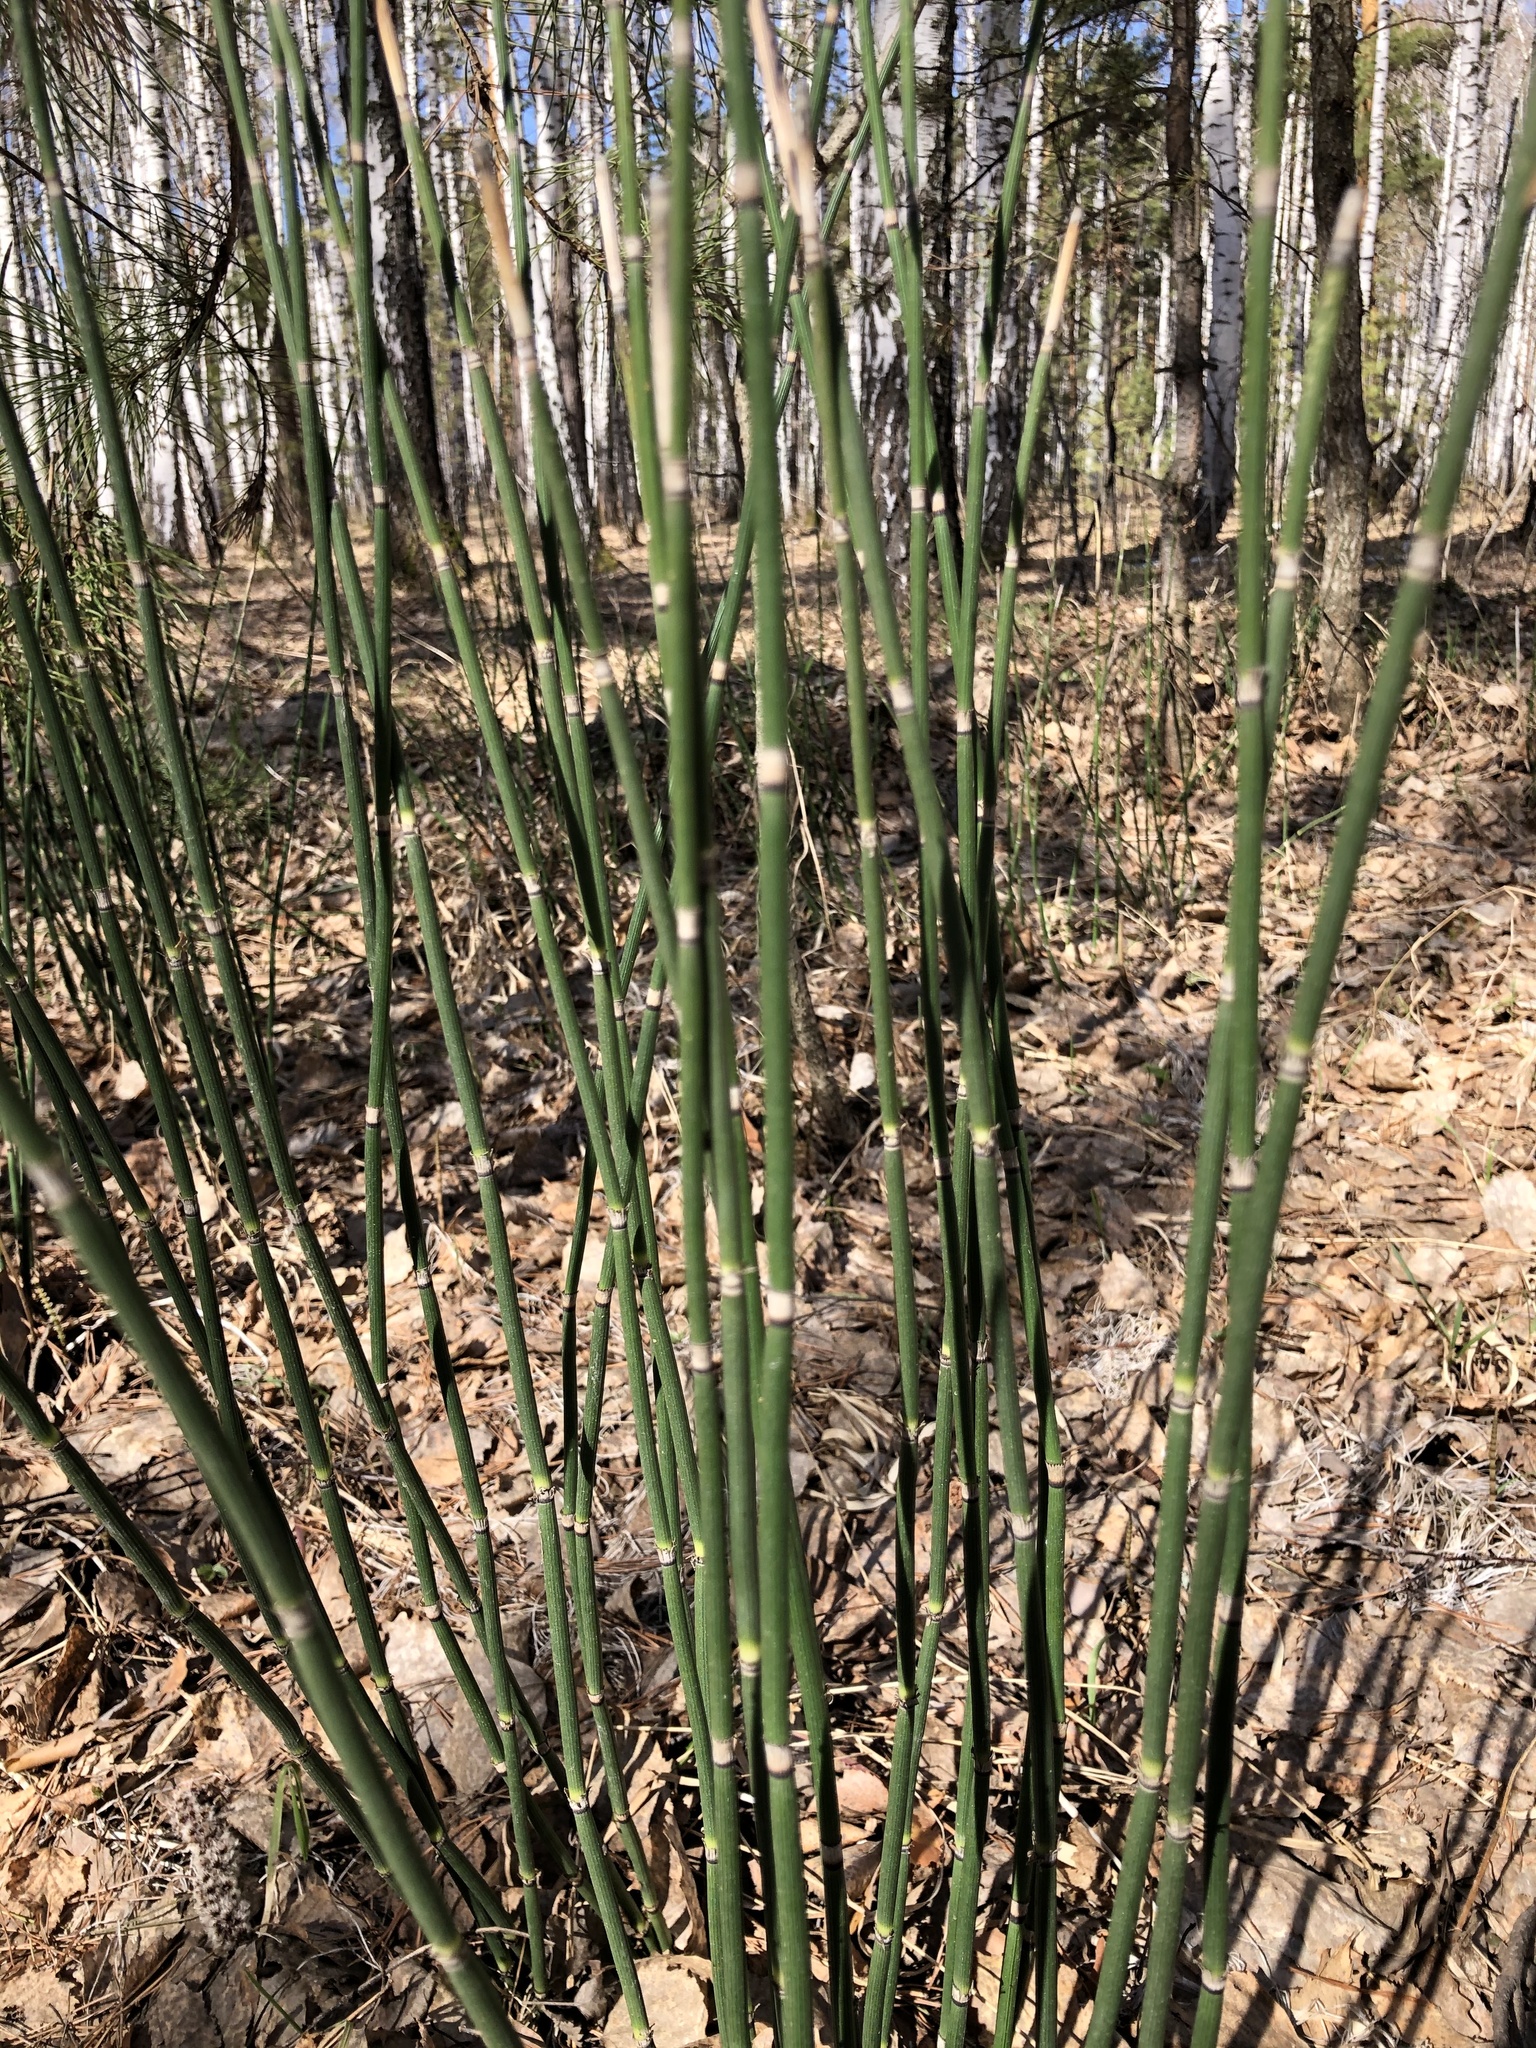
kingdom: Plantae
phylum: Tracheophyta
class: Polypodiopsida
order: Equisetales
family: Equisetaceae
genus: Equisetum
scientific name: Equisetum hyemale
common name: Rough horsetail
